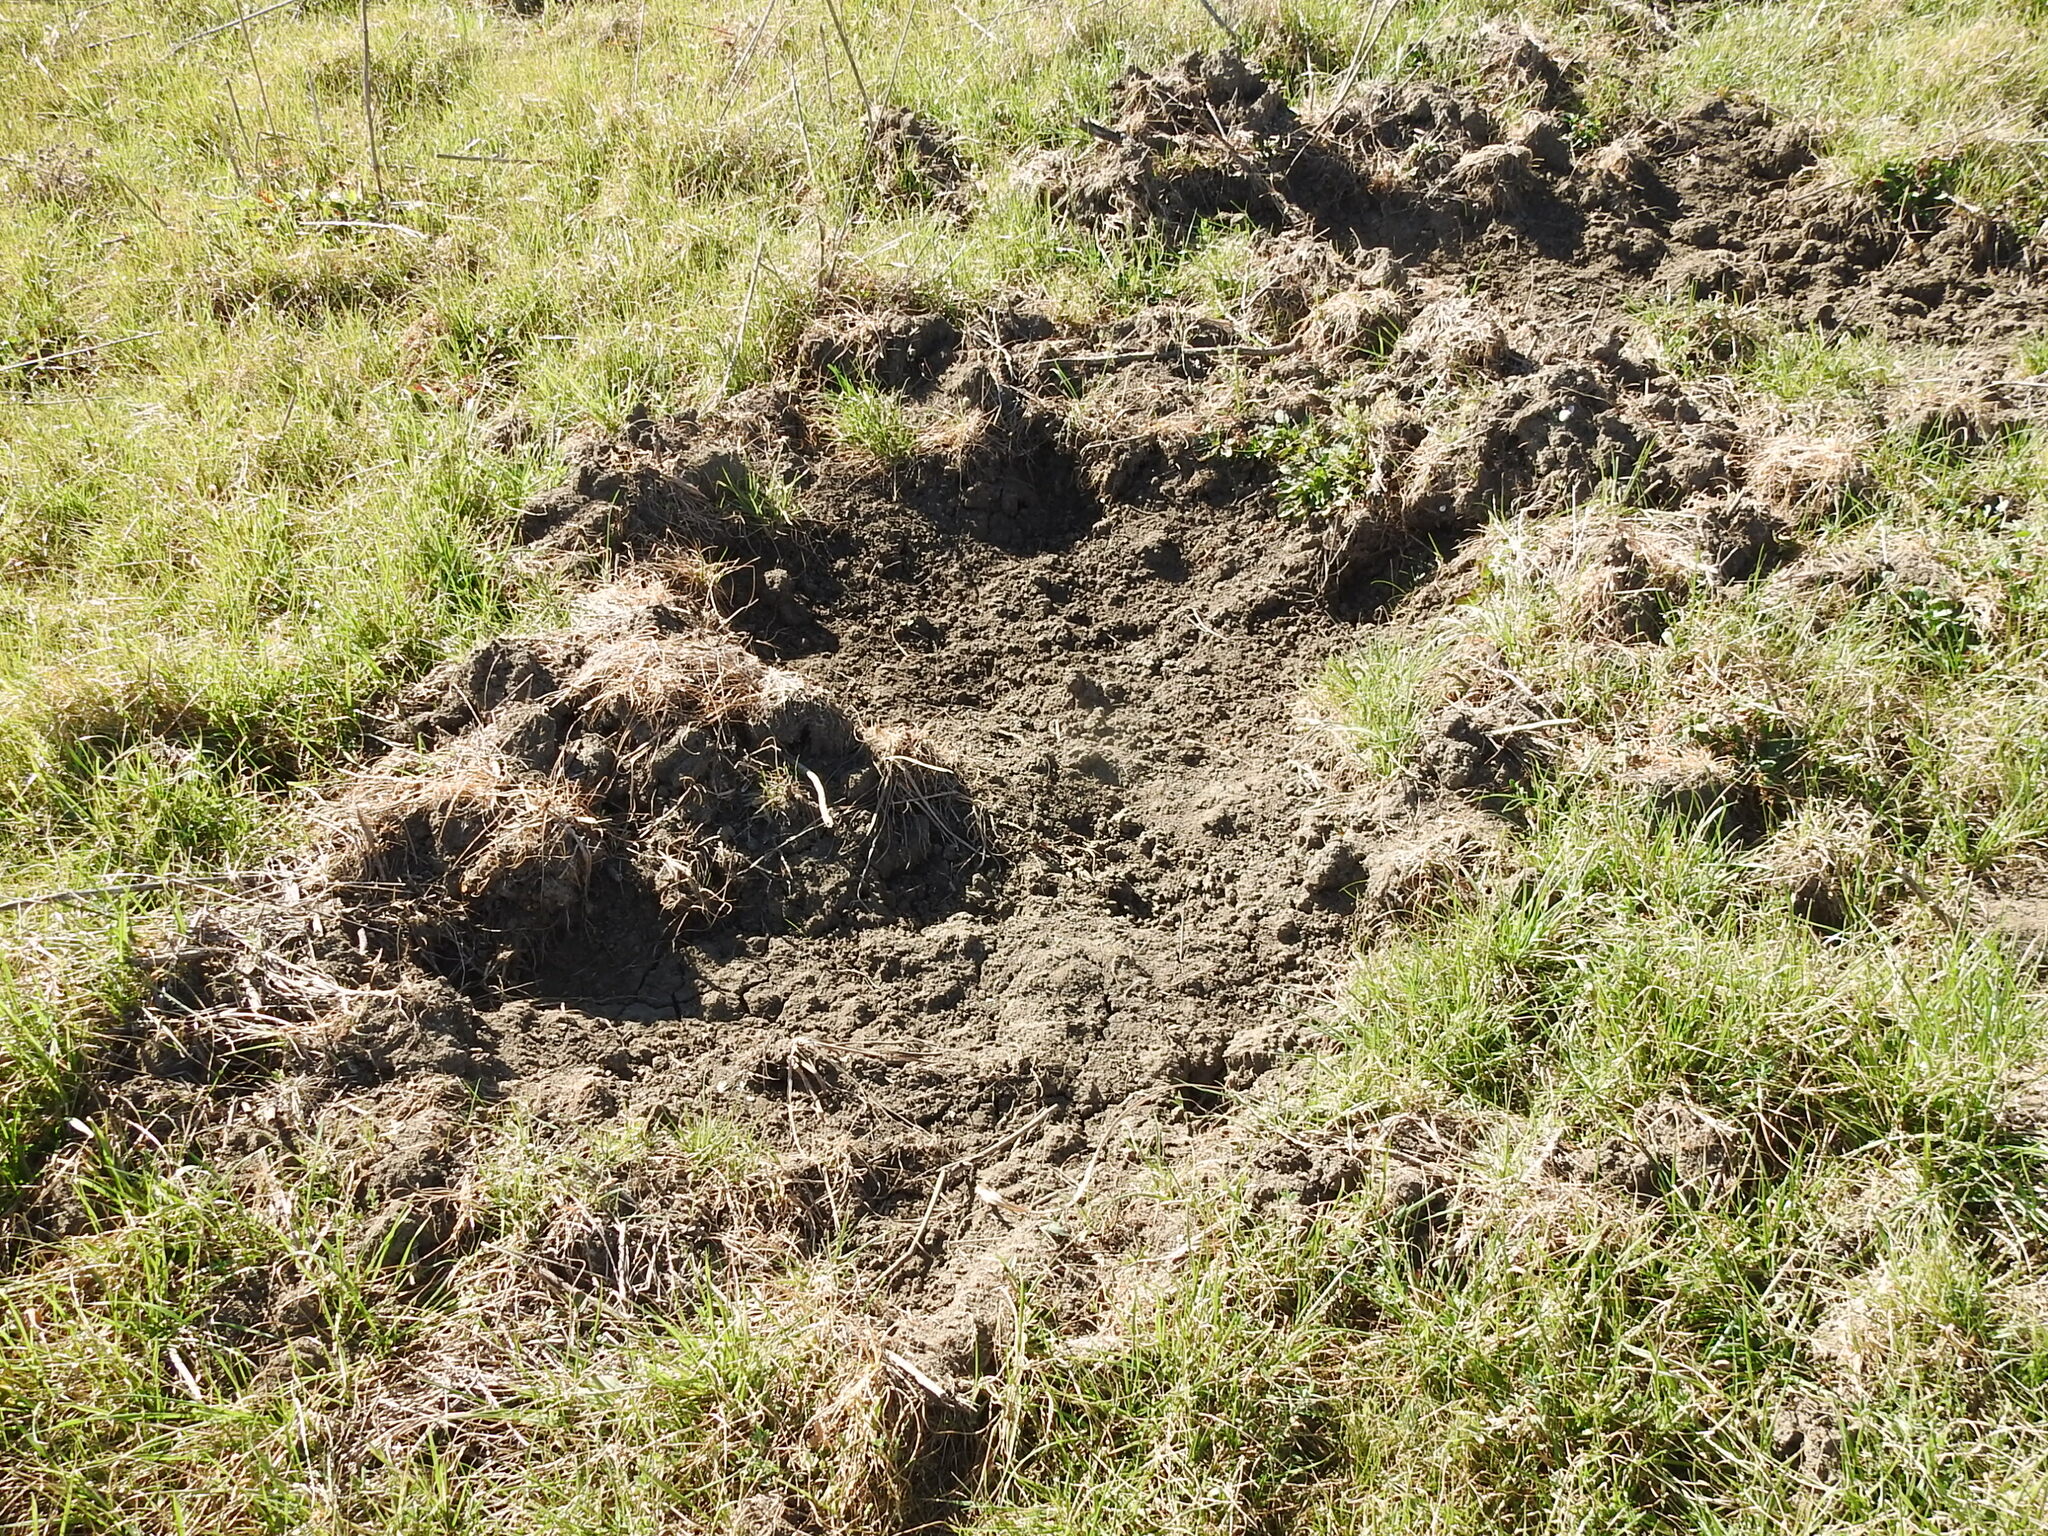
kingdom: Animalia
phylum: Chordata
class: Mammalia
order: Artiodactyla
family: Suidae
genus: Sus
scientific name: Sus scrofa
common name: Wild boar
